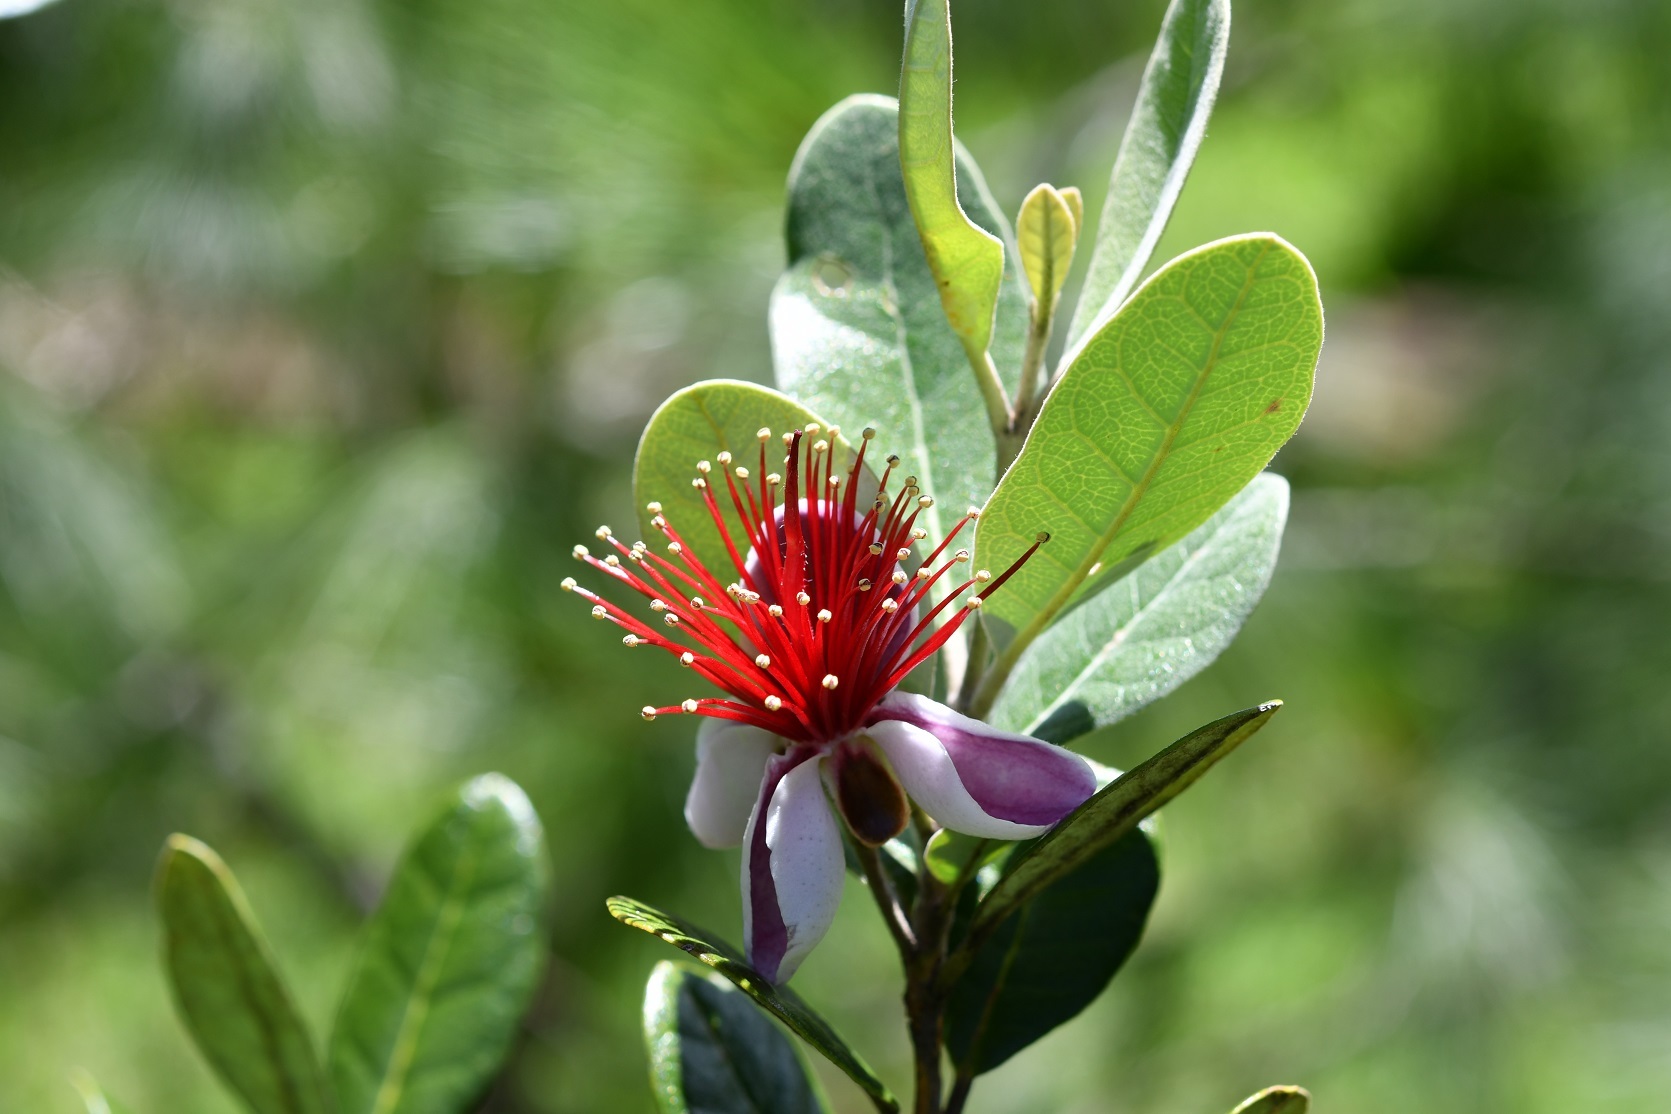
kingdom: Plantae
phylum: Tracheophyta
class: Magnoliopsida
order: Myrtales
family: Myrtaceae
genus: Feijoa
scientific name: Feijoa sellowiana
